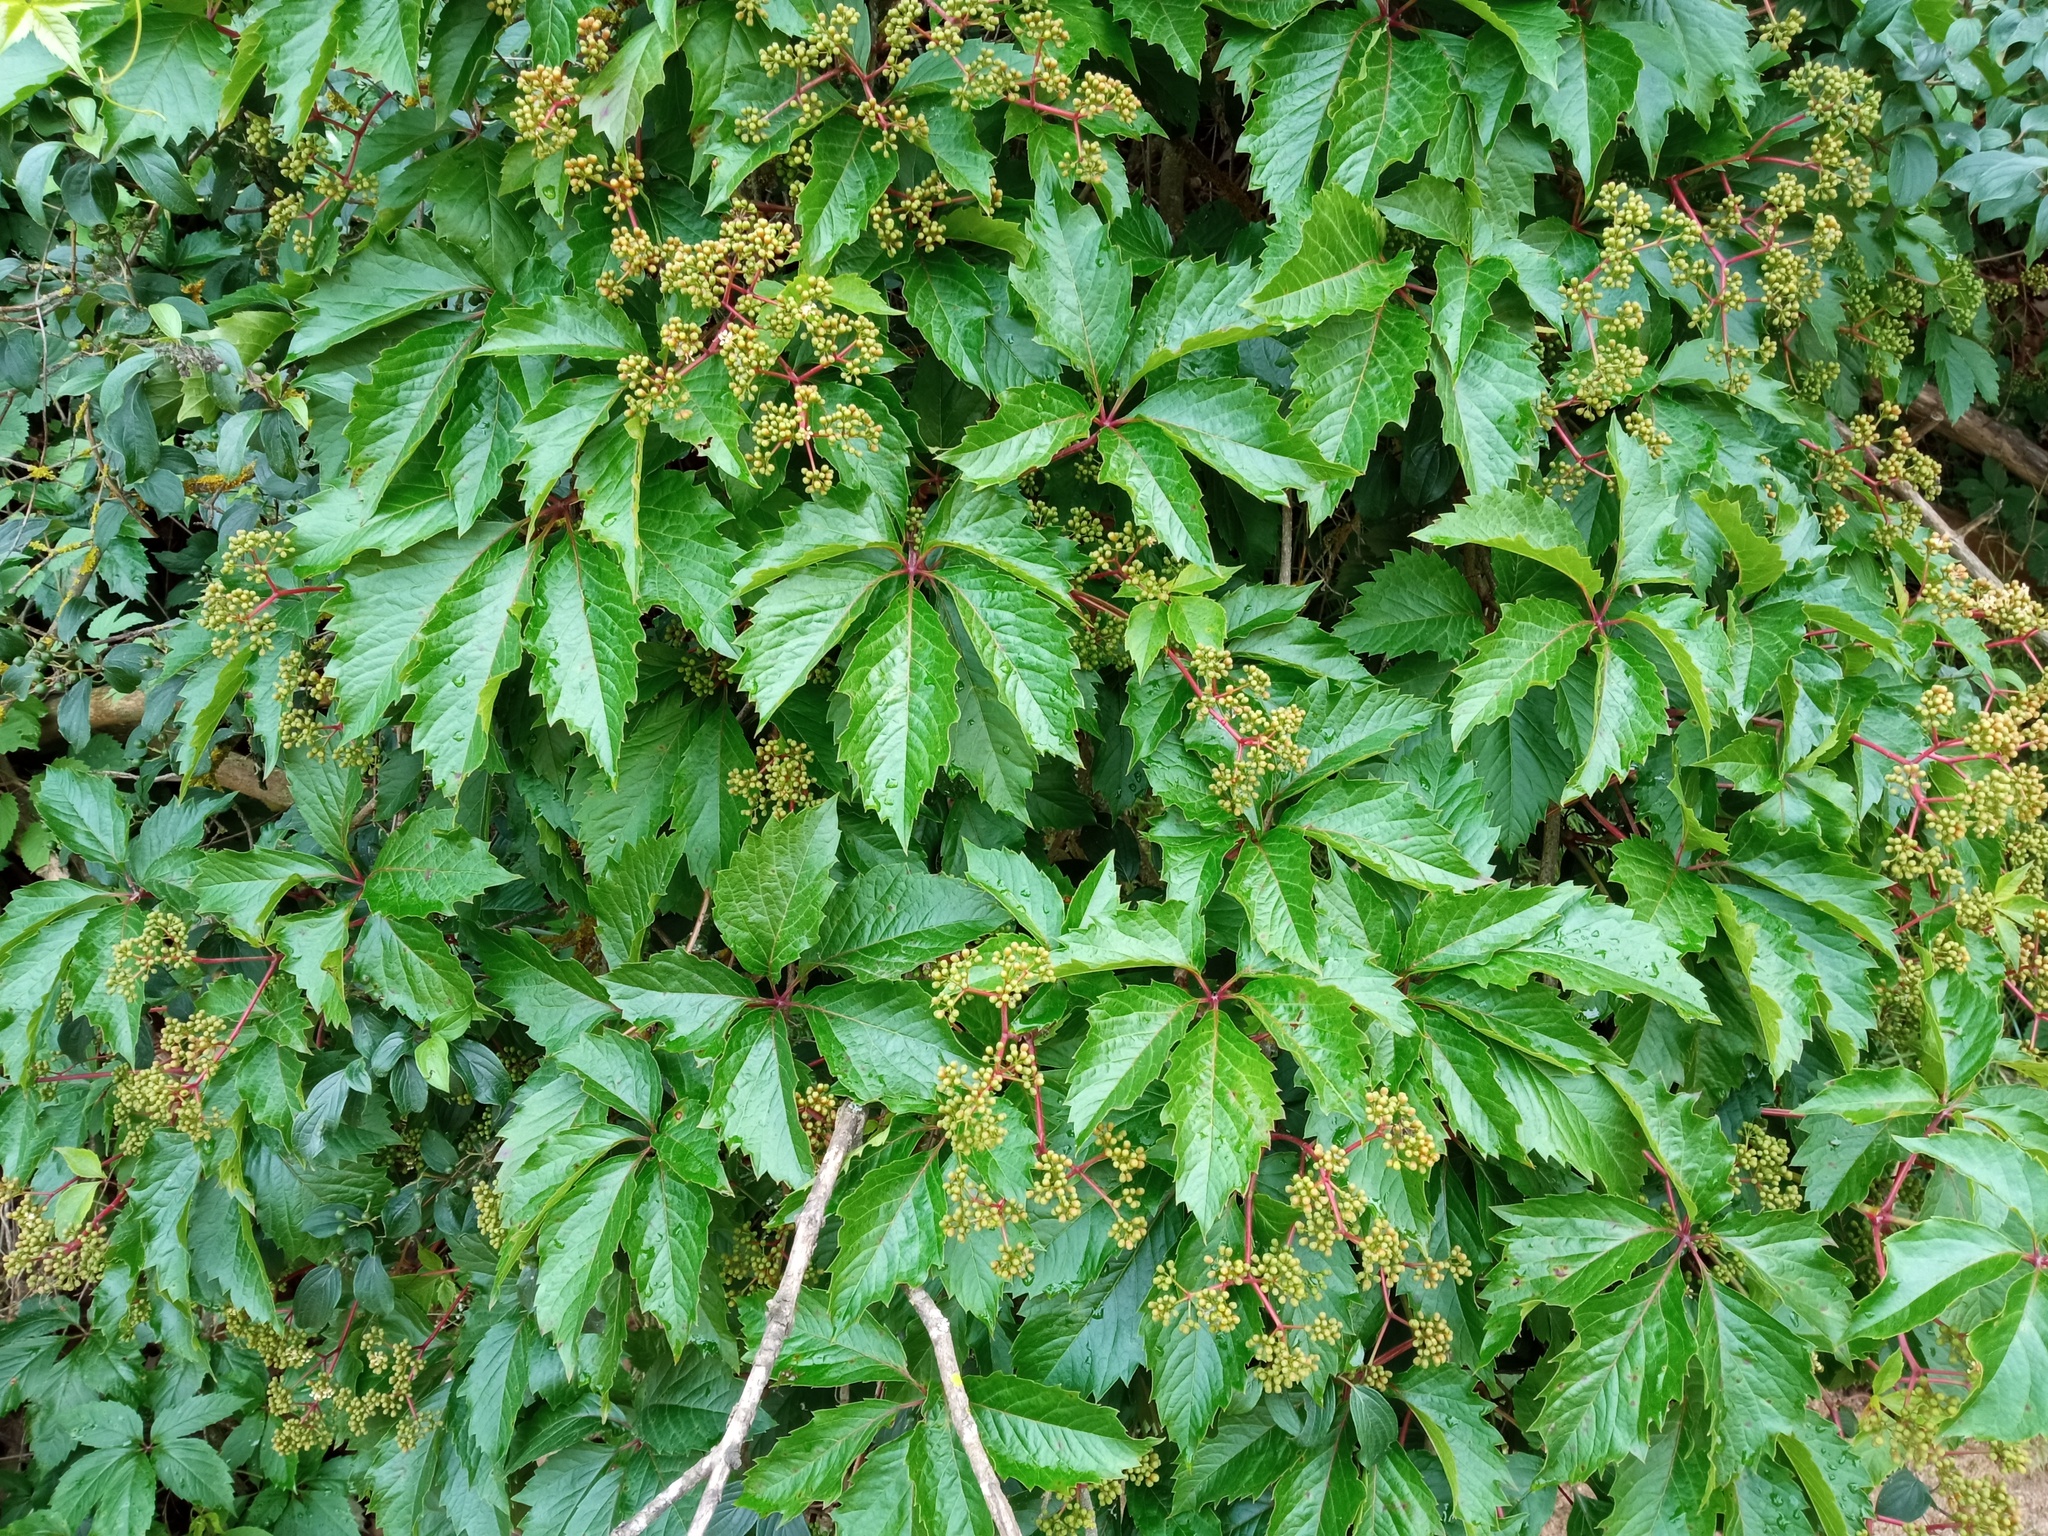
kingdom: Plantae
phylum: Tracheophyta
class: Magnoliopsida
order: Vitales
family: Vitaceae
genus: Parthenocissus
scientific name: Parthenocissus inserta
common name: False virginia-creeper
